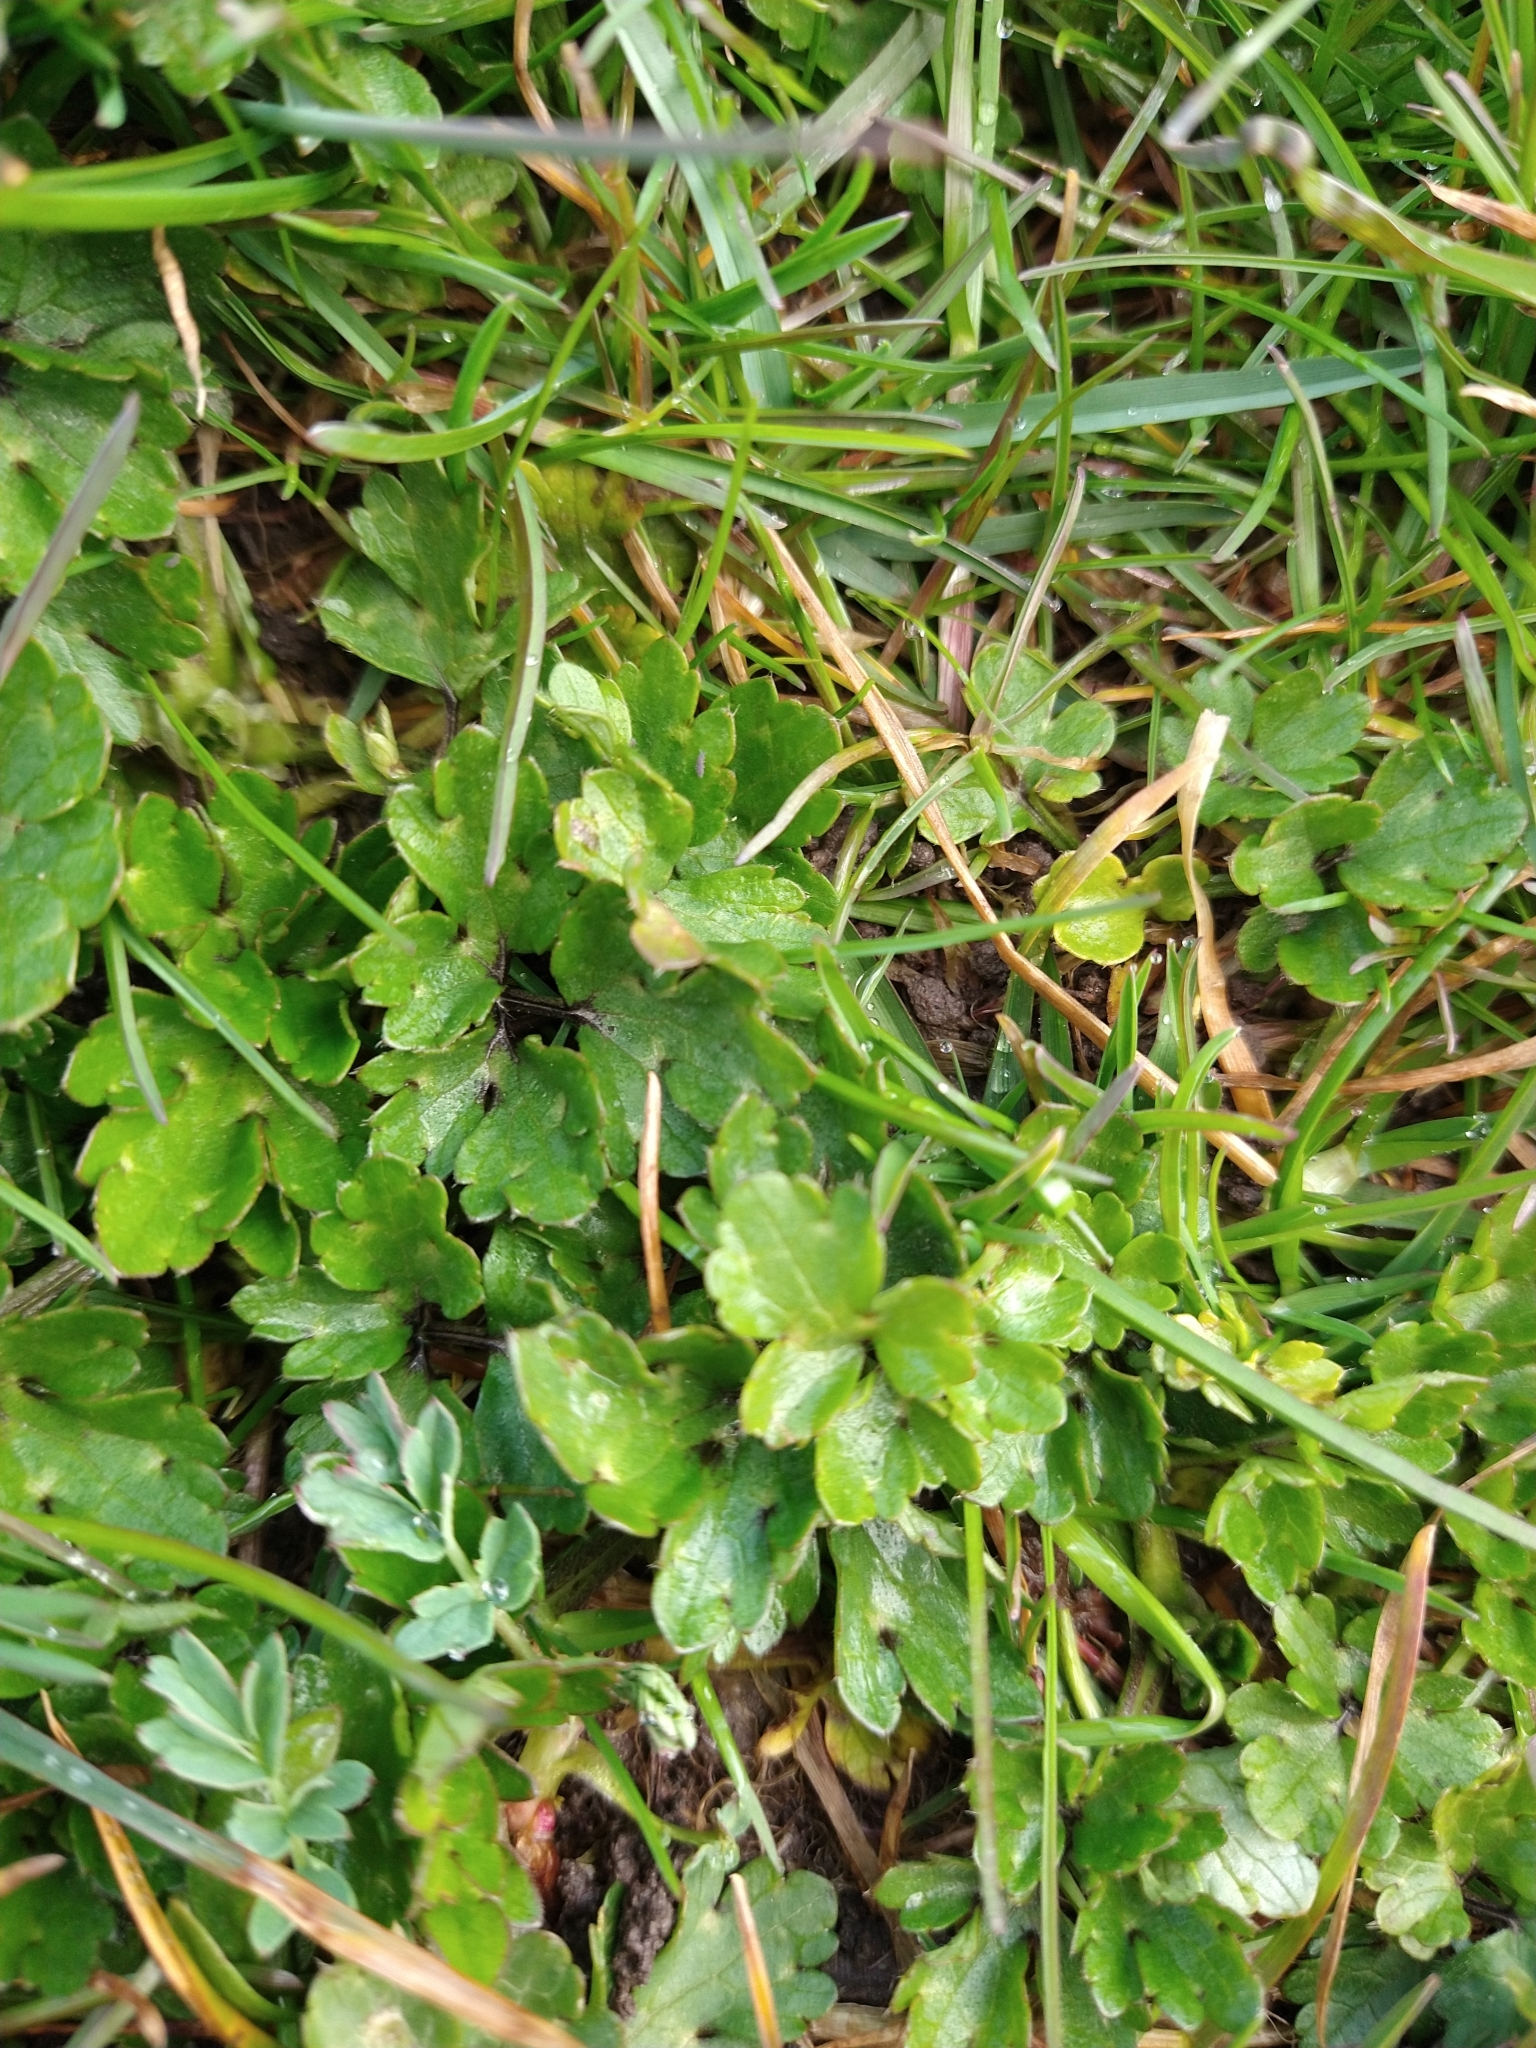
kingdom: Plantae
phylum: Tracheophyta
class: Magnoliopsida
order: Ranunculales
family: Ranunculaceae
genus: Ranunculus
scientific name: Ranunculus repens
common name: Creeping buttercup
